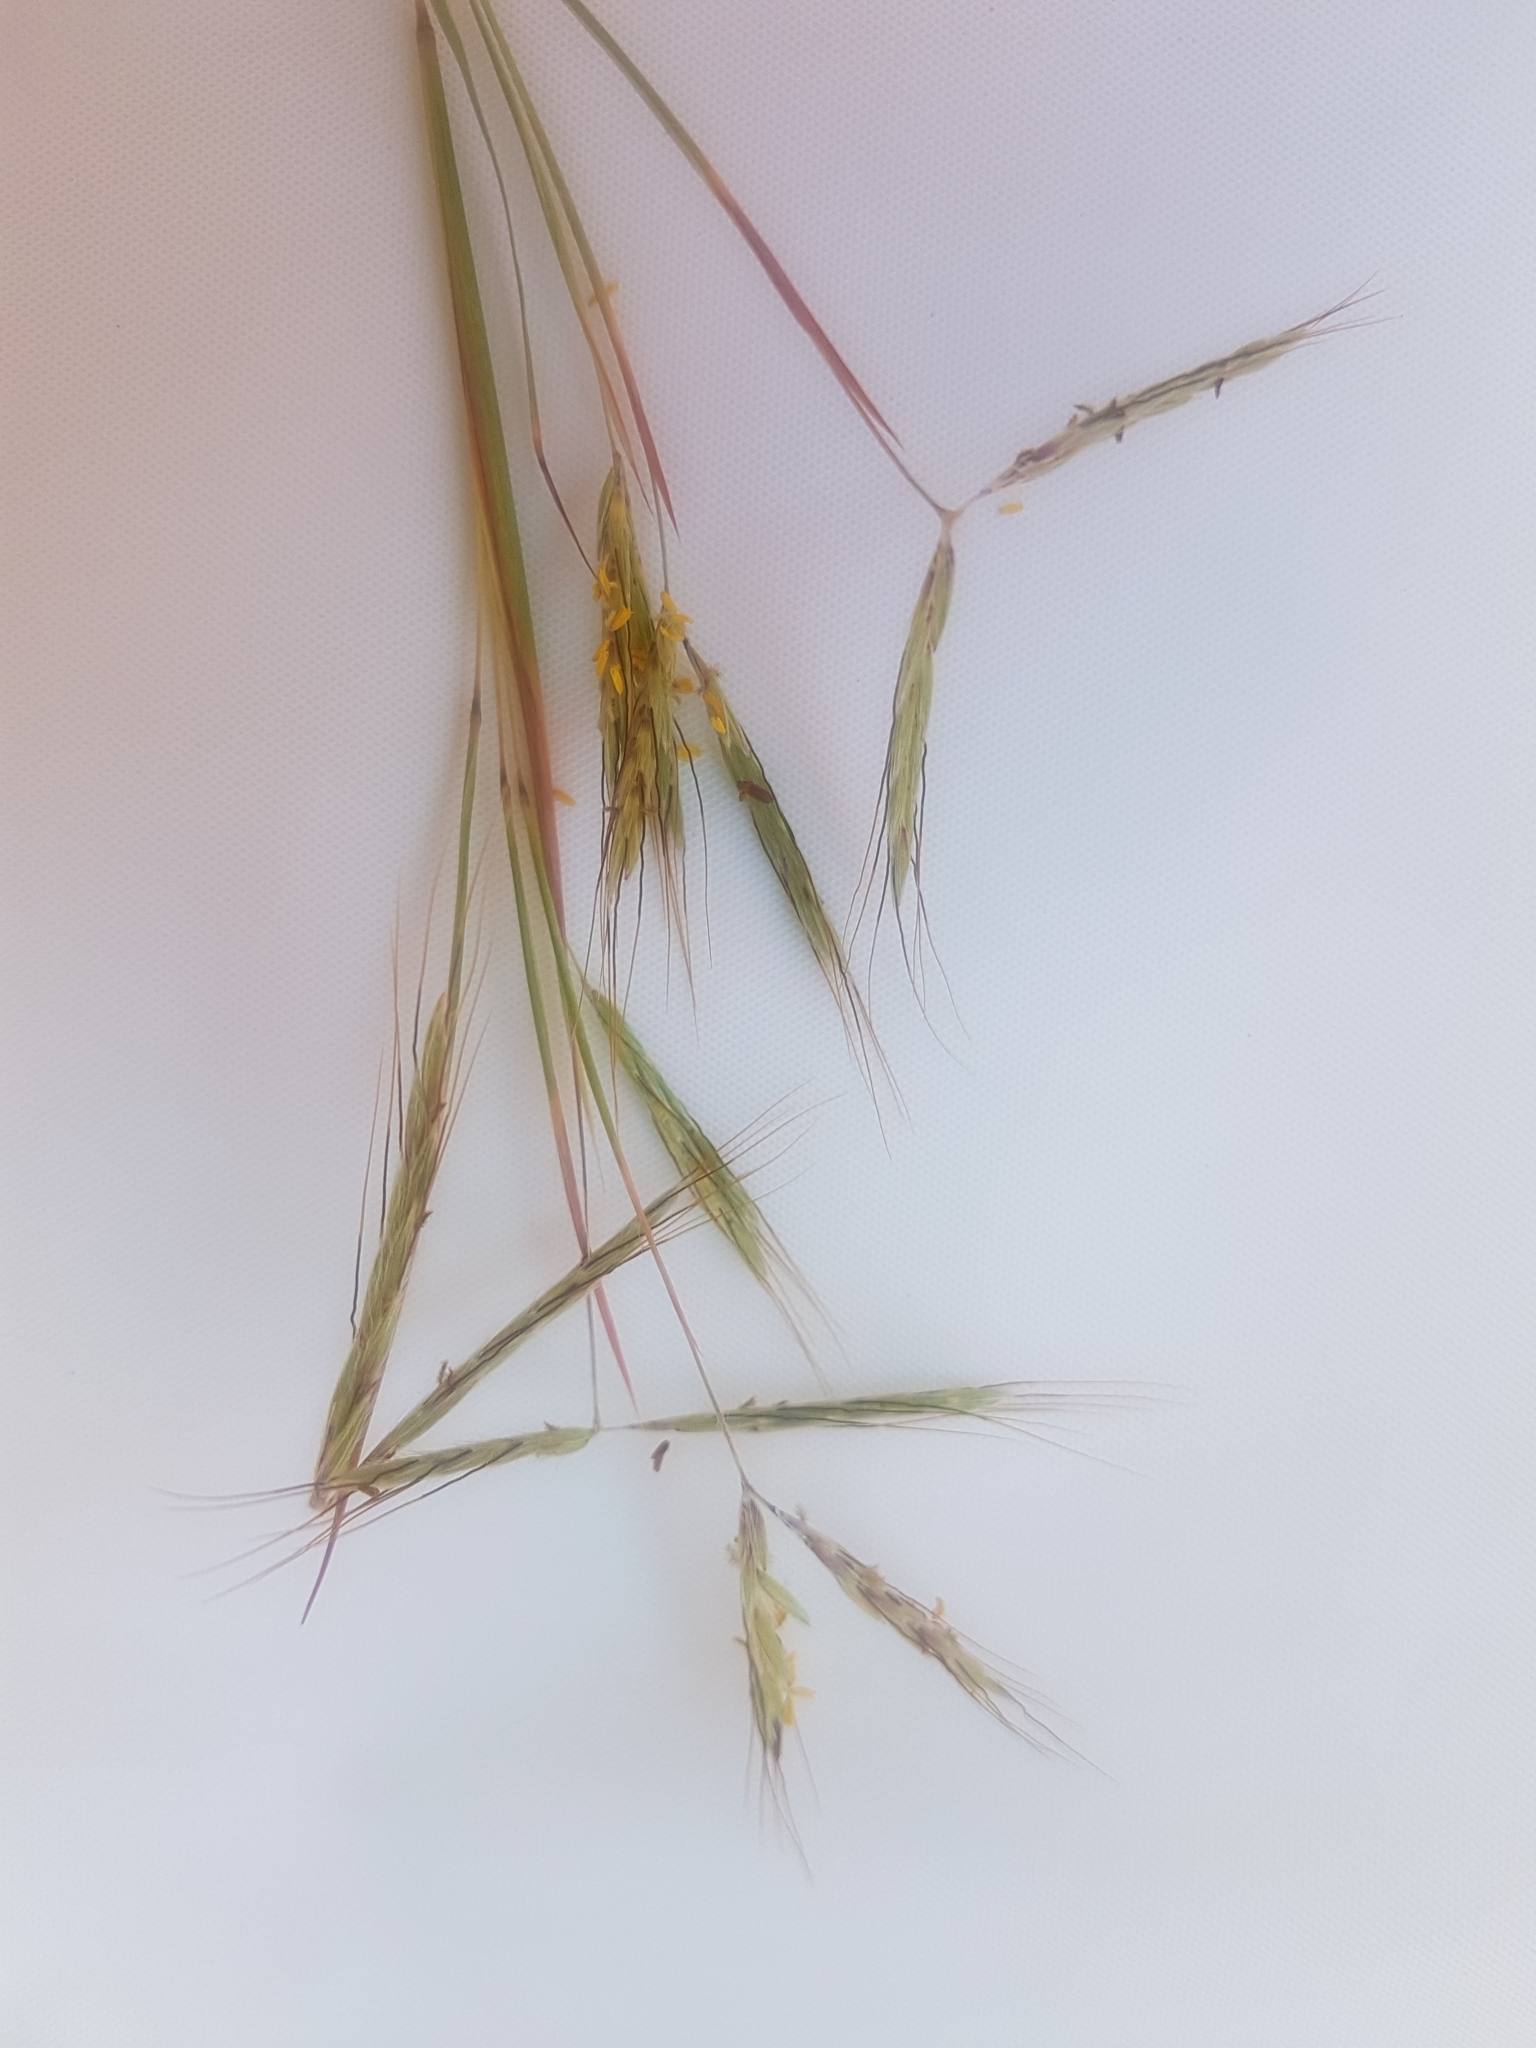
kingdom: Plantae
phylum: Tracheophyta
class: Liliopsida
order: Poales
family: Poaceae
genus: Hyparrhenia
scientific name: Hyparrhenia hirta
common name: Thatching grass
